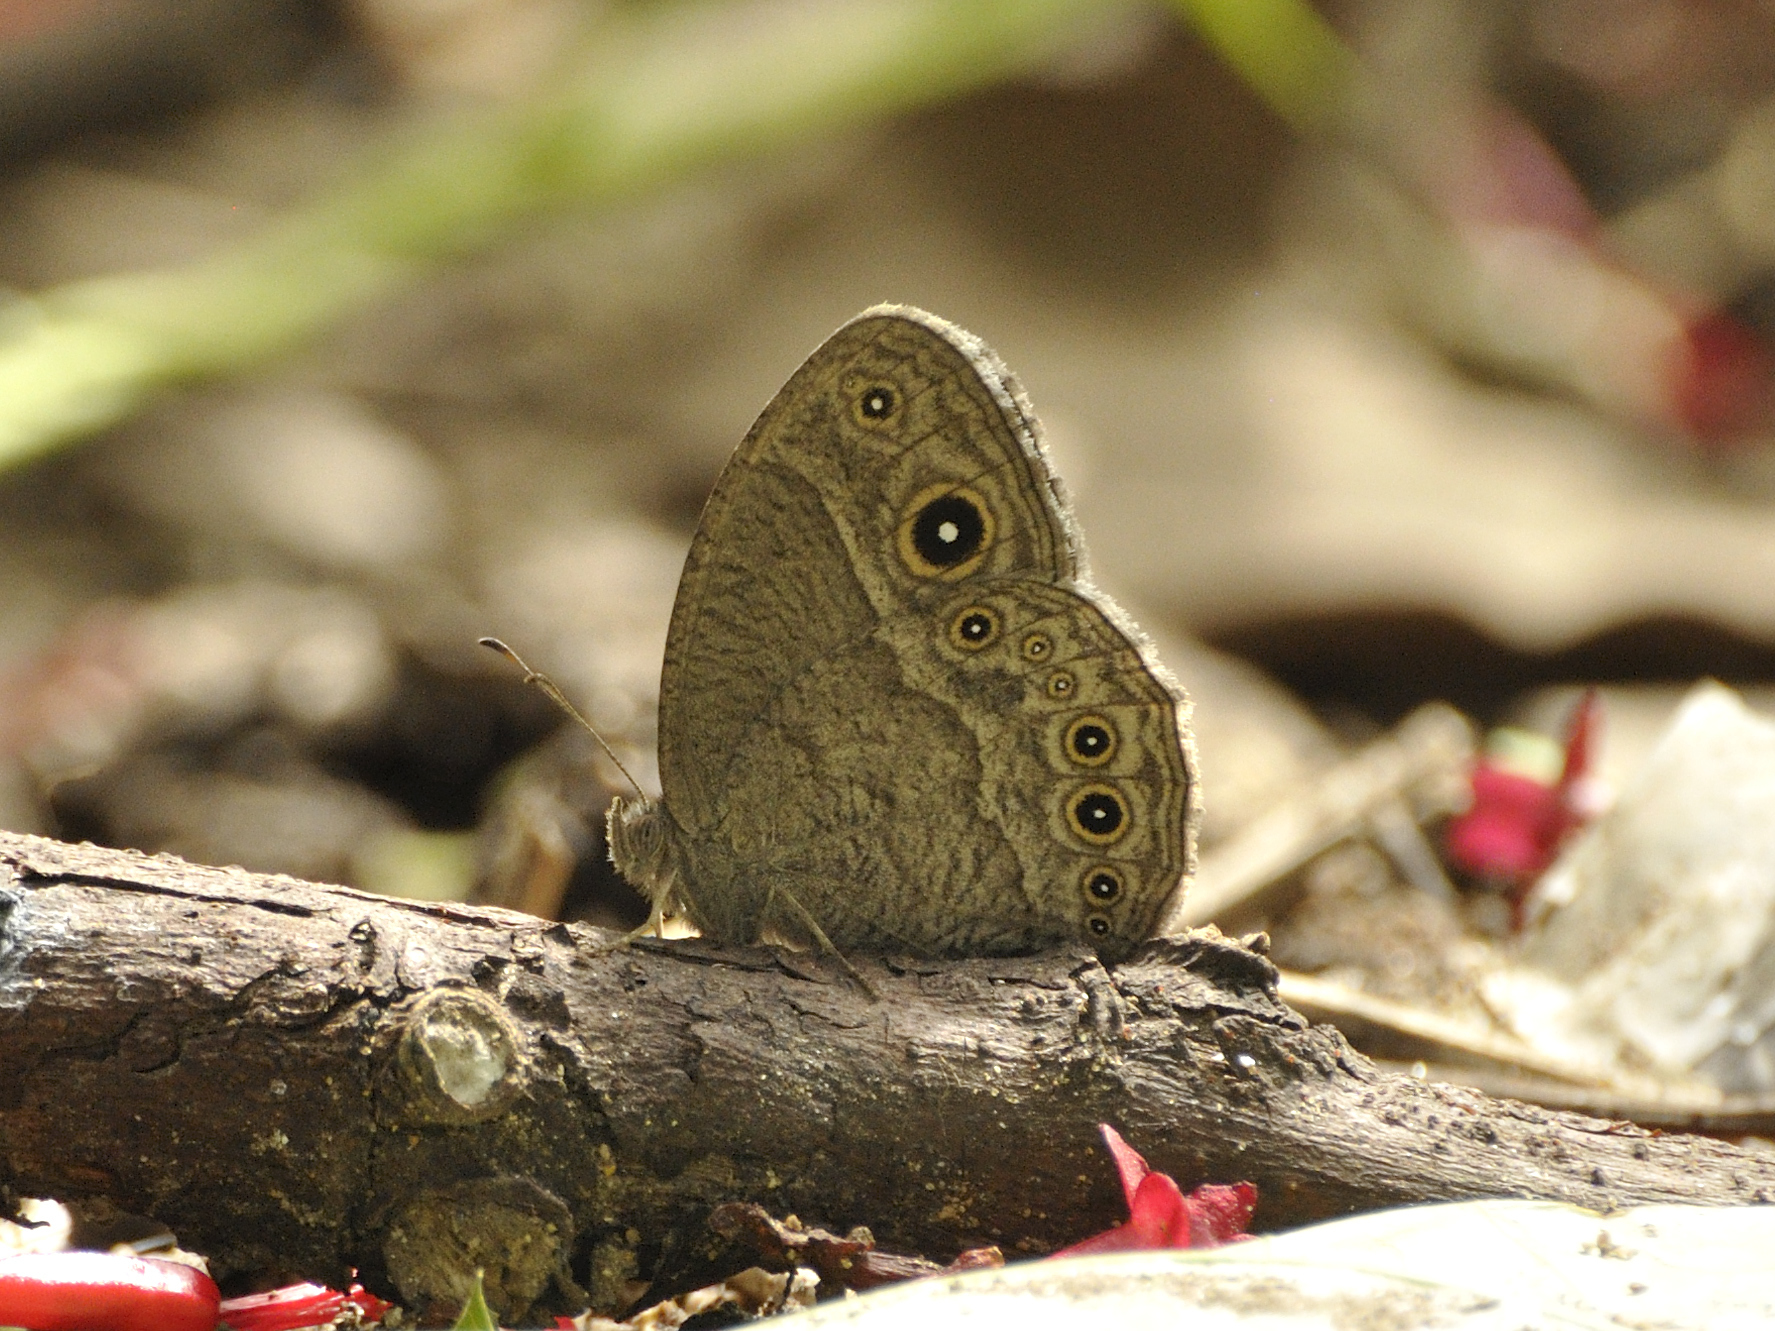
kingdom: Animalia
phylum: Arthropoda
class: Insecta
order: Lepidoptera
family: Nymphalidae
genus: Mycalesis
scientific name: Mycalesis ena
